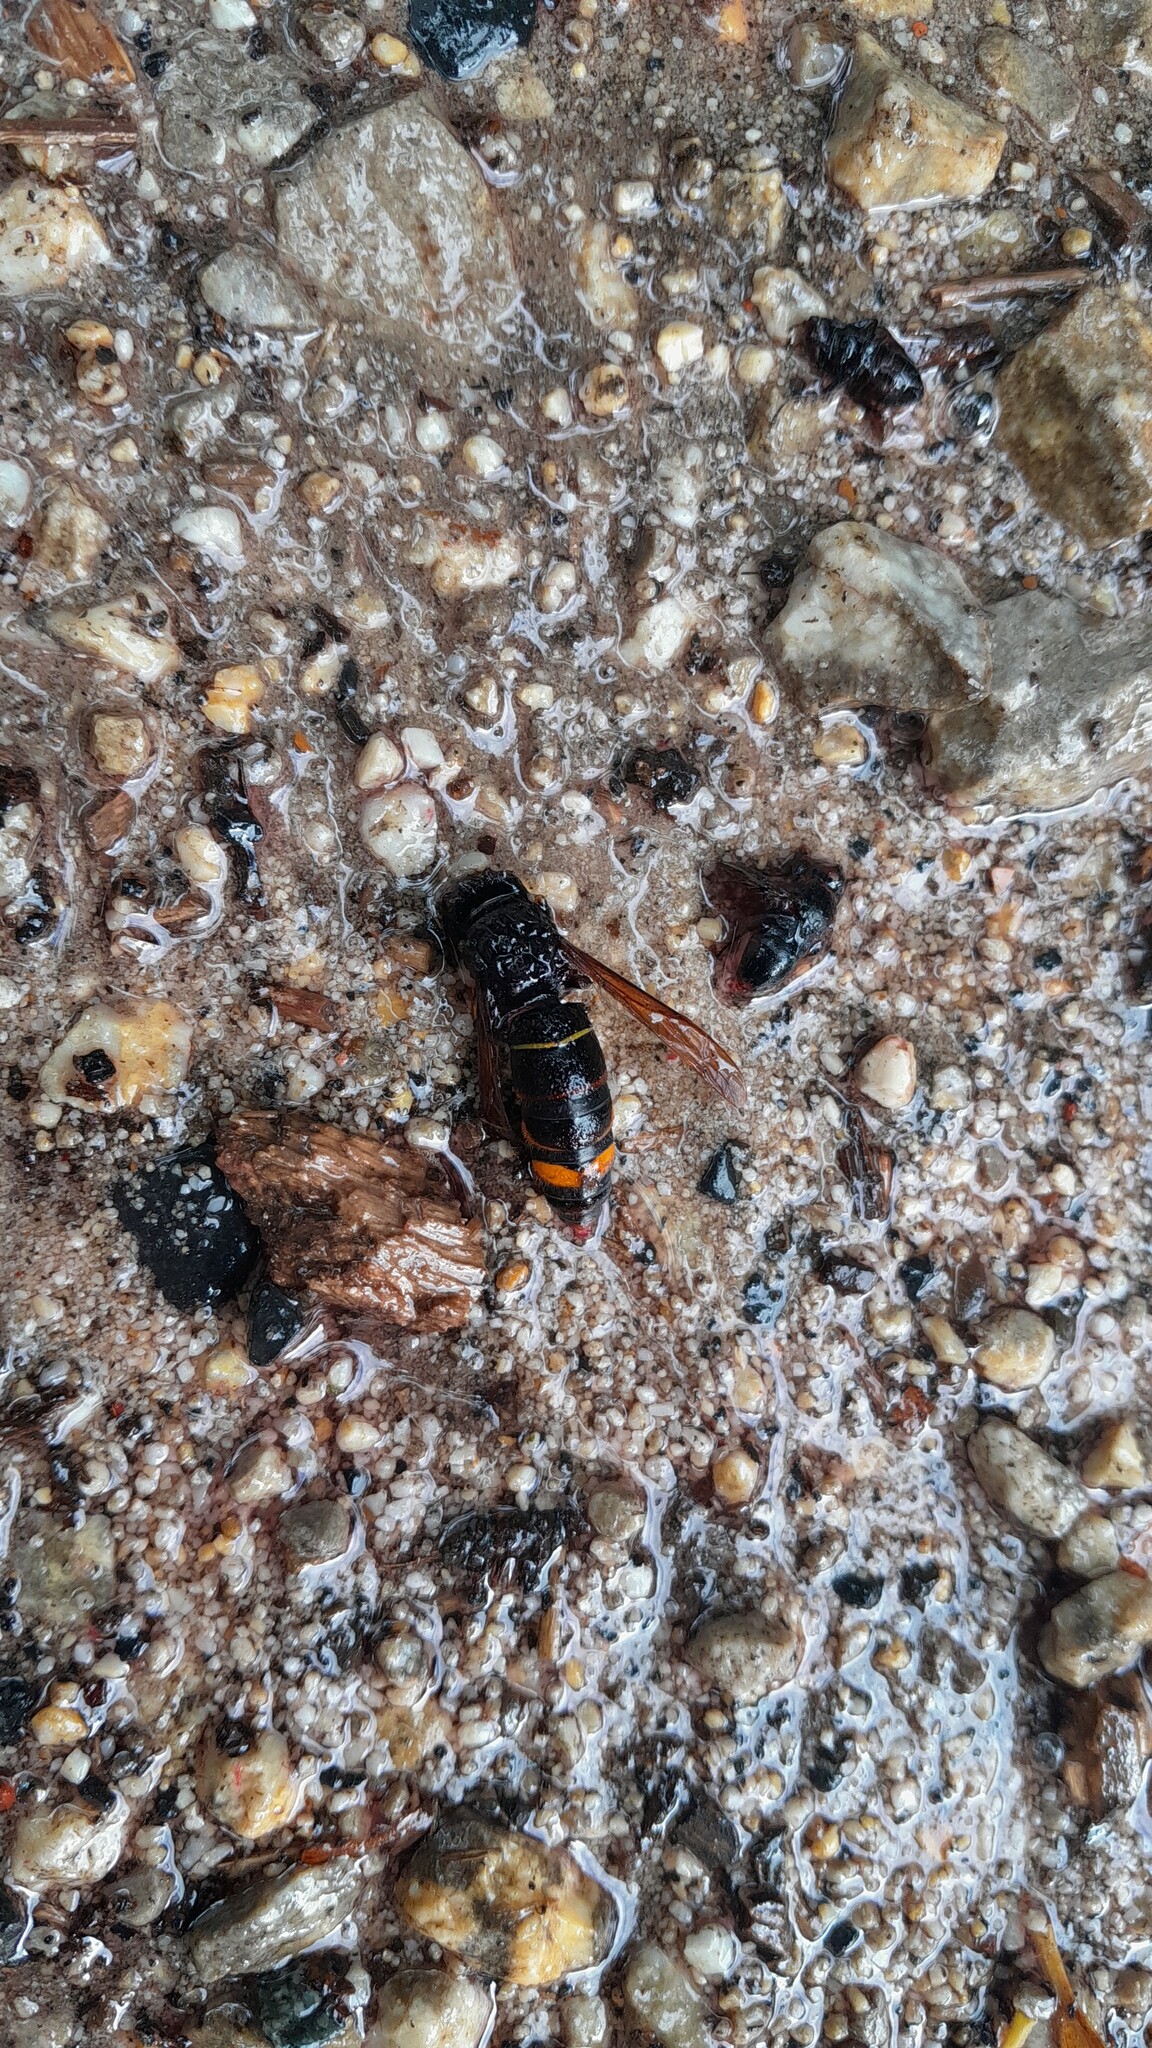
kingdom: Animalia
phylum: Arthropoda
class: Insecta
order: Hymenoptera
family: Vespidae
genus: Vespa
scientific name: Vespa velutina
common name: Asian hornet
